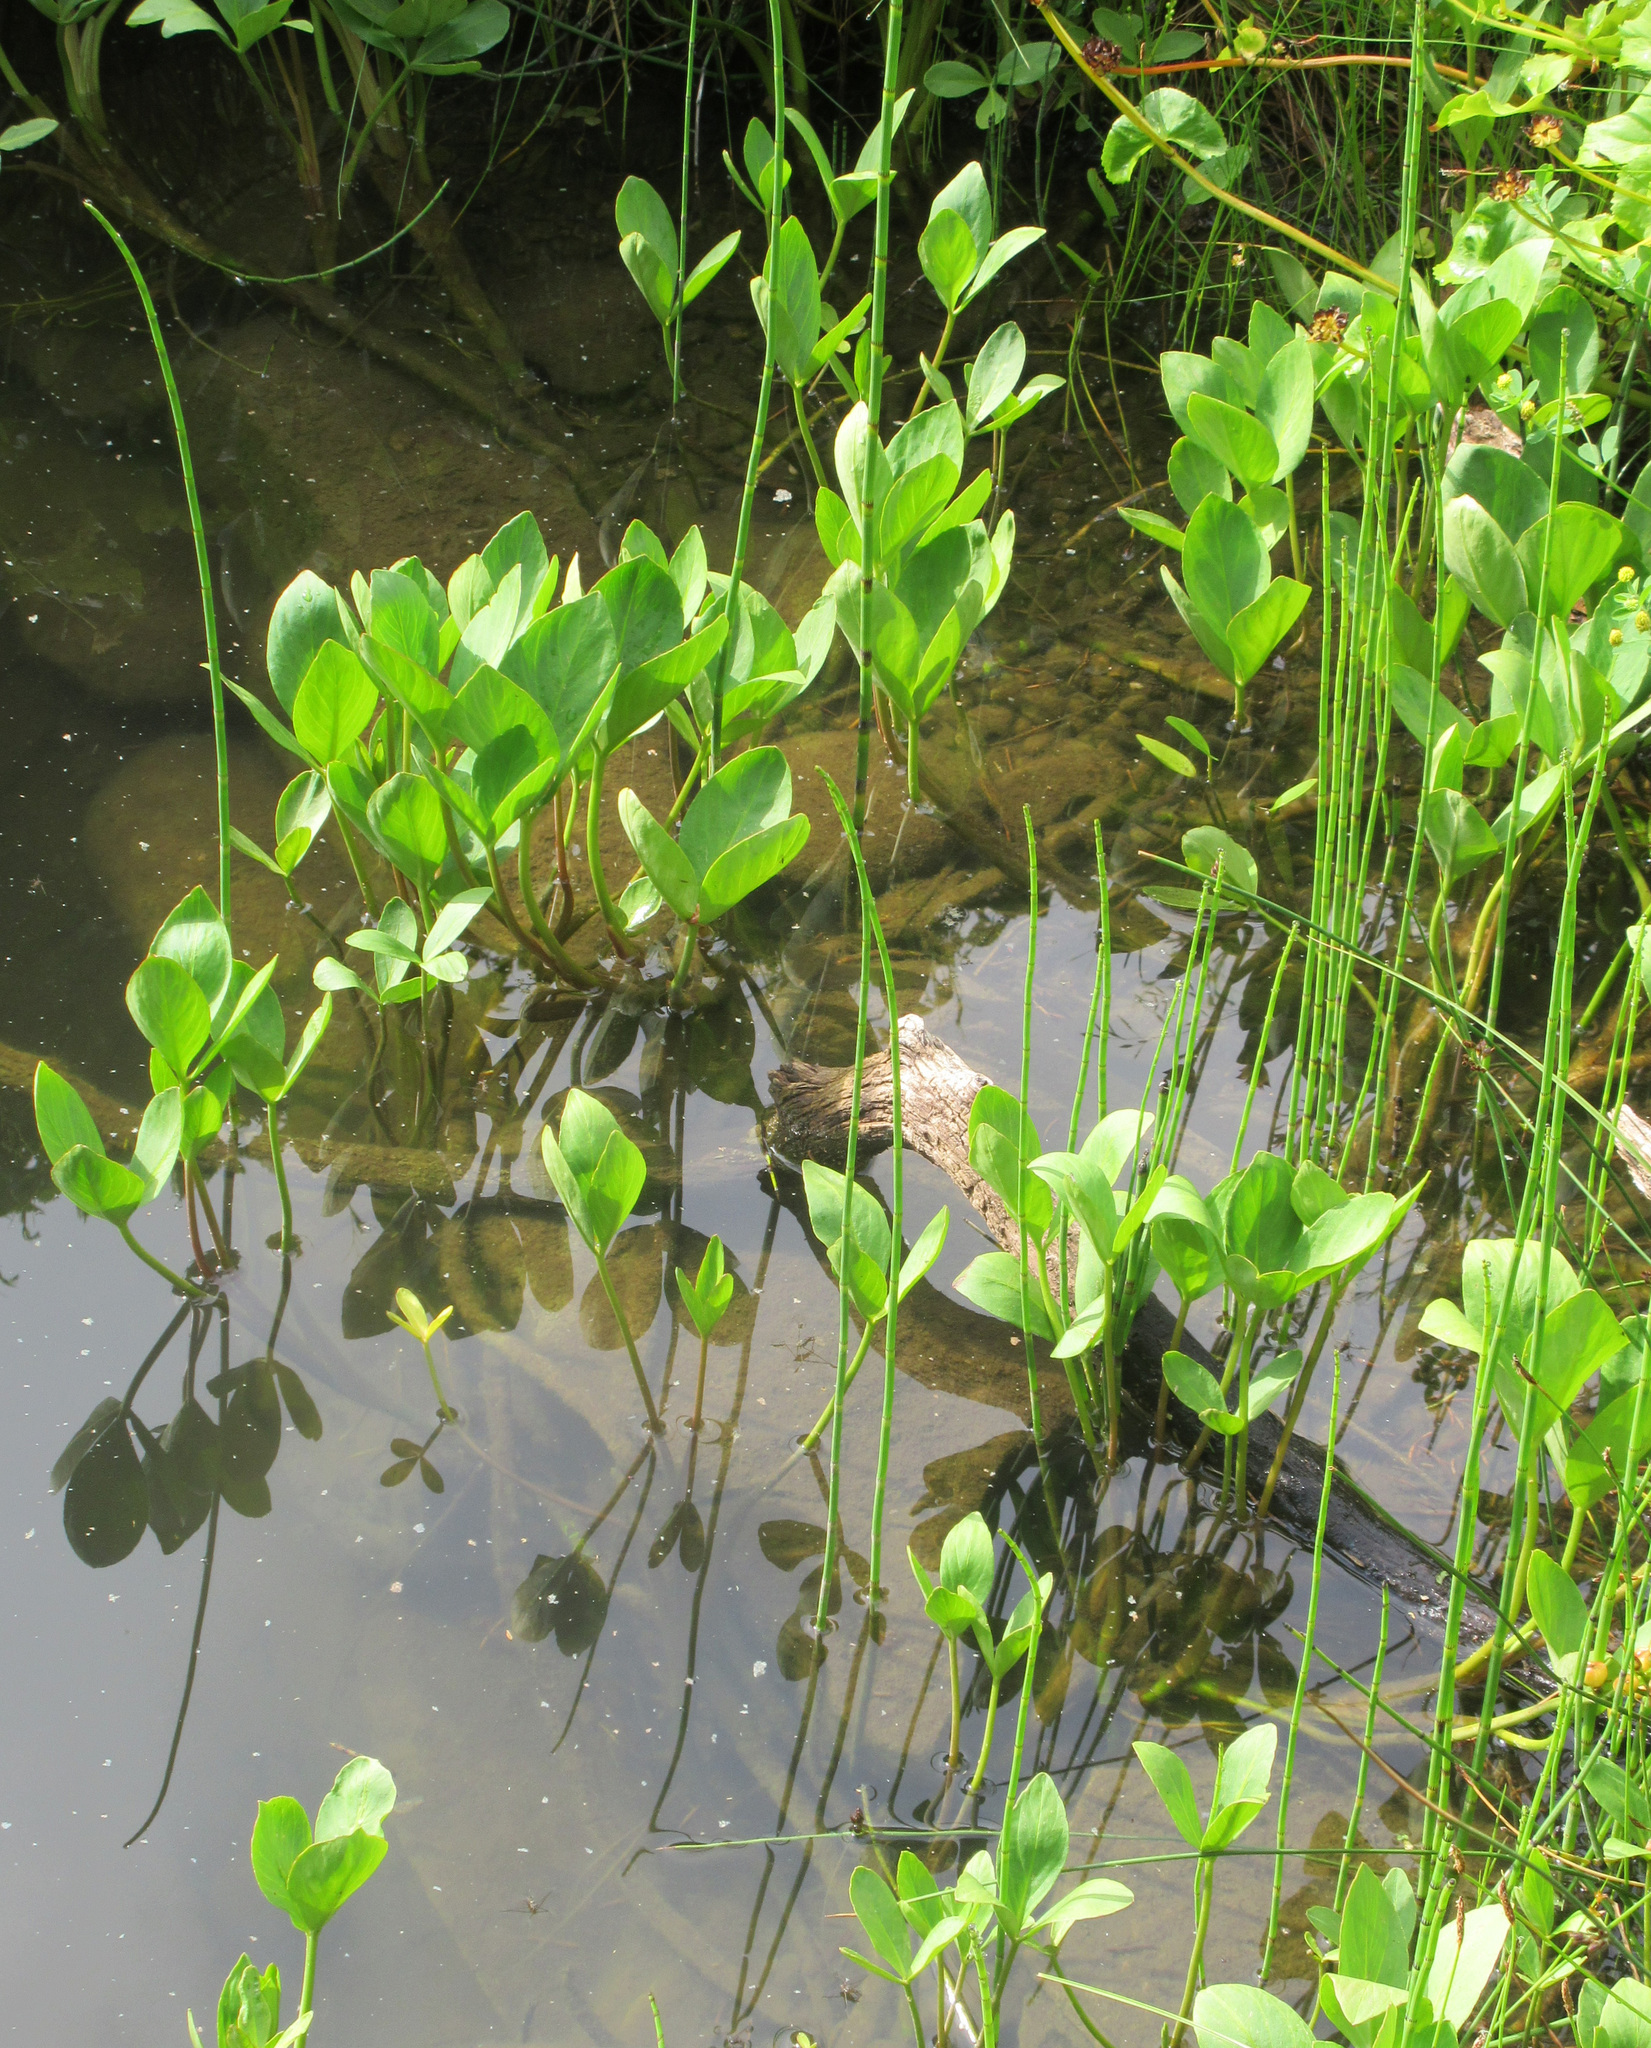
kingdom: Plantae
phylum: Tracheophyta
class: Magnoliopsida
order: Asterales
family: Menyanthaceae
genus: Menyanthes
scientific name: Menyanthes trifoliata
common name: Bogbean
